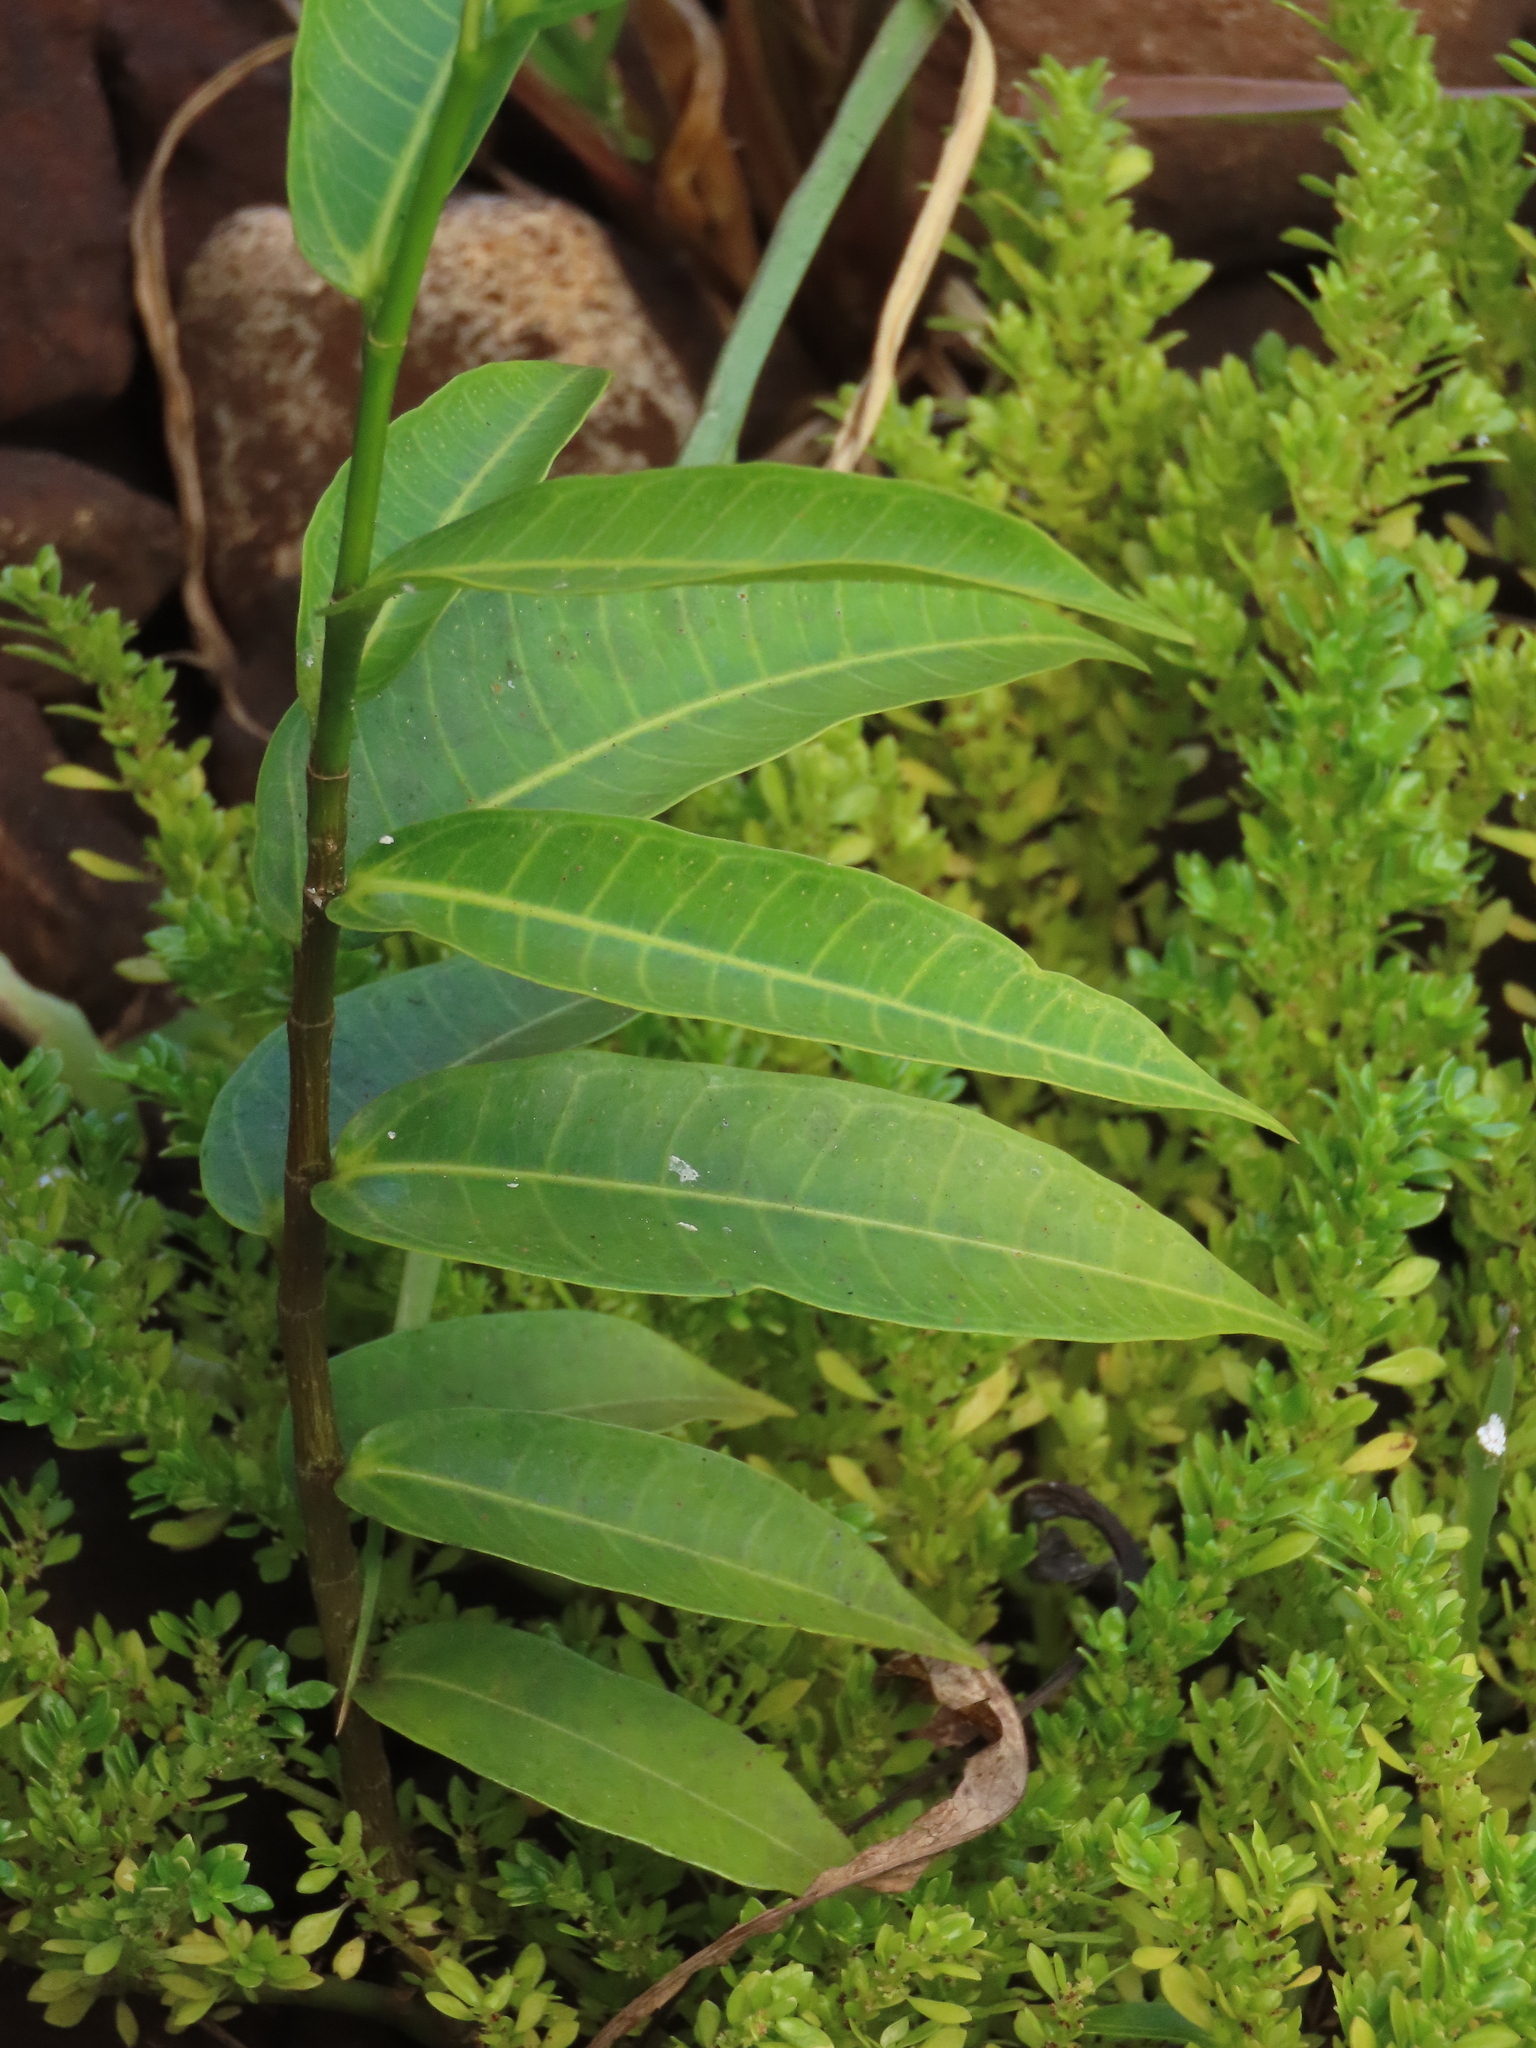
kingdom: Plantae
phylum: Tracheophyta
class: Magnoliopsida
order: Rosales
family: Moraceae
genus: Ficus
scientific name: Ficus virgata
